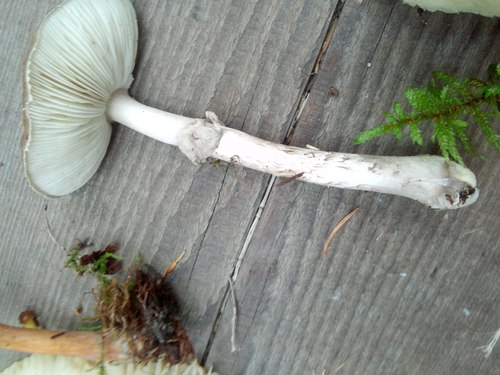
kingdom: Fungi
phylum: Basidiomycota
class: Agaricomycetes
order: Agaricales
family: Amanitaceae
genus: Amanita
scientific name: Amanita pantherina
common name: Panthercap
